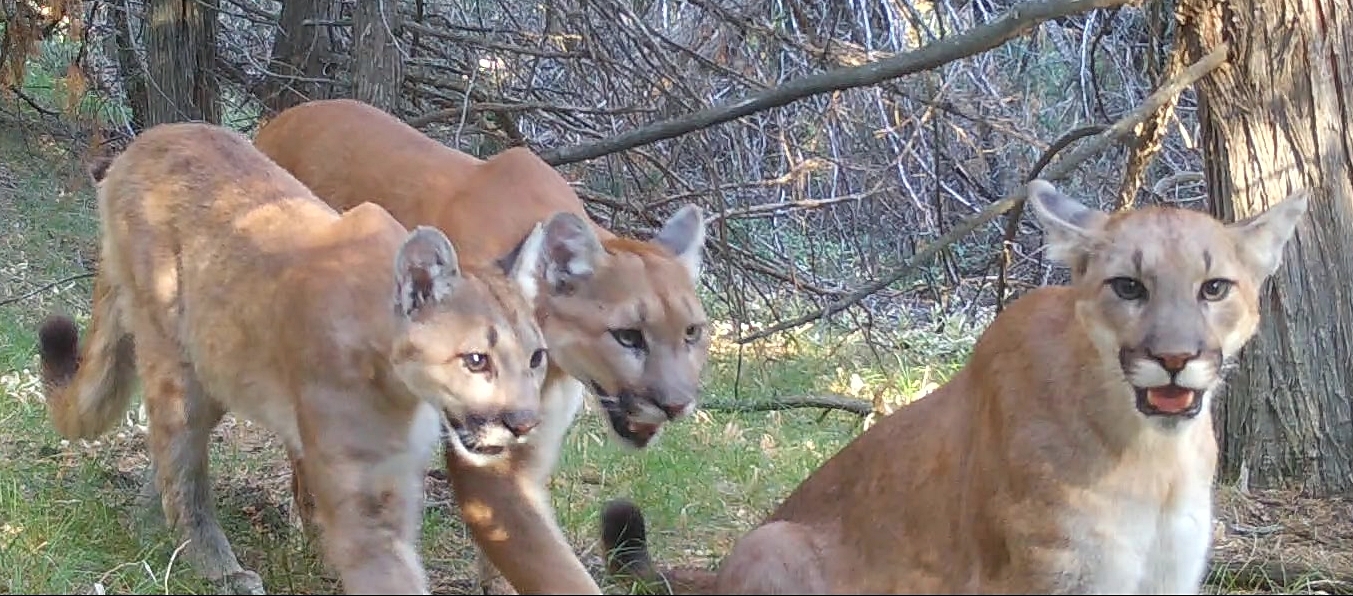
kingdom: Animalia
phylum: Chordata
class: Mammalia
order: Carnivora
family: Felidae
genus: Puma
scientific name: Puma concolor
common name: Puma
